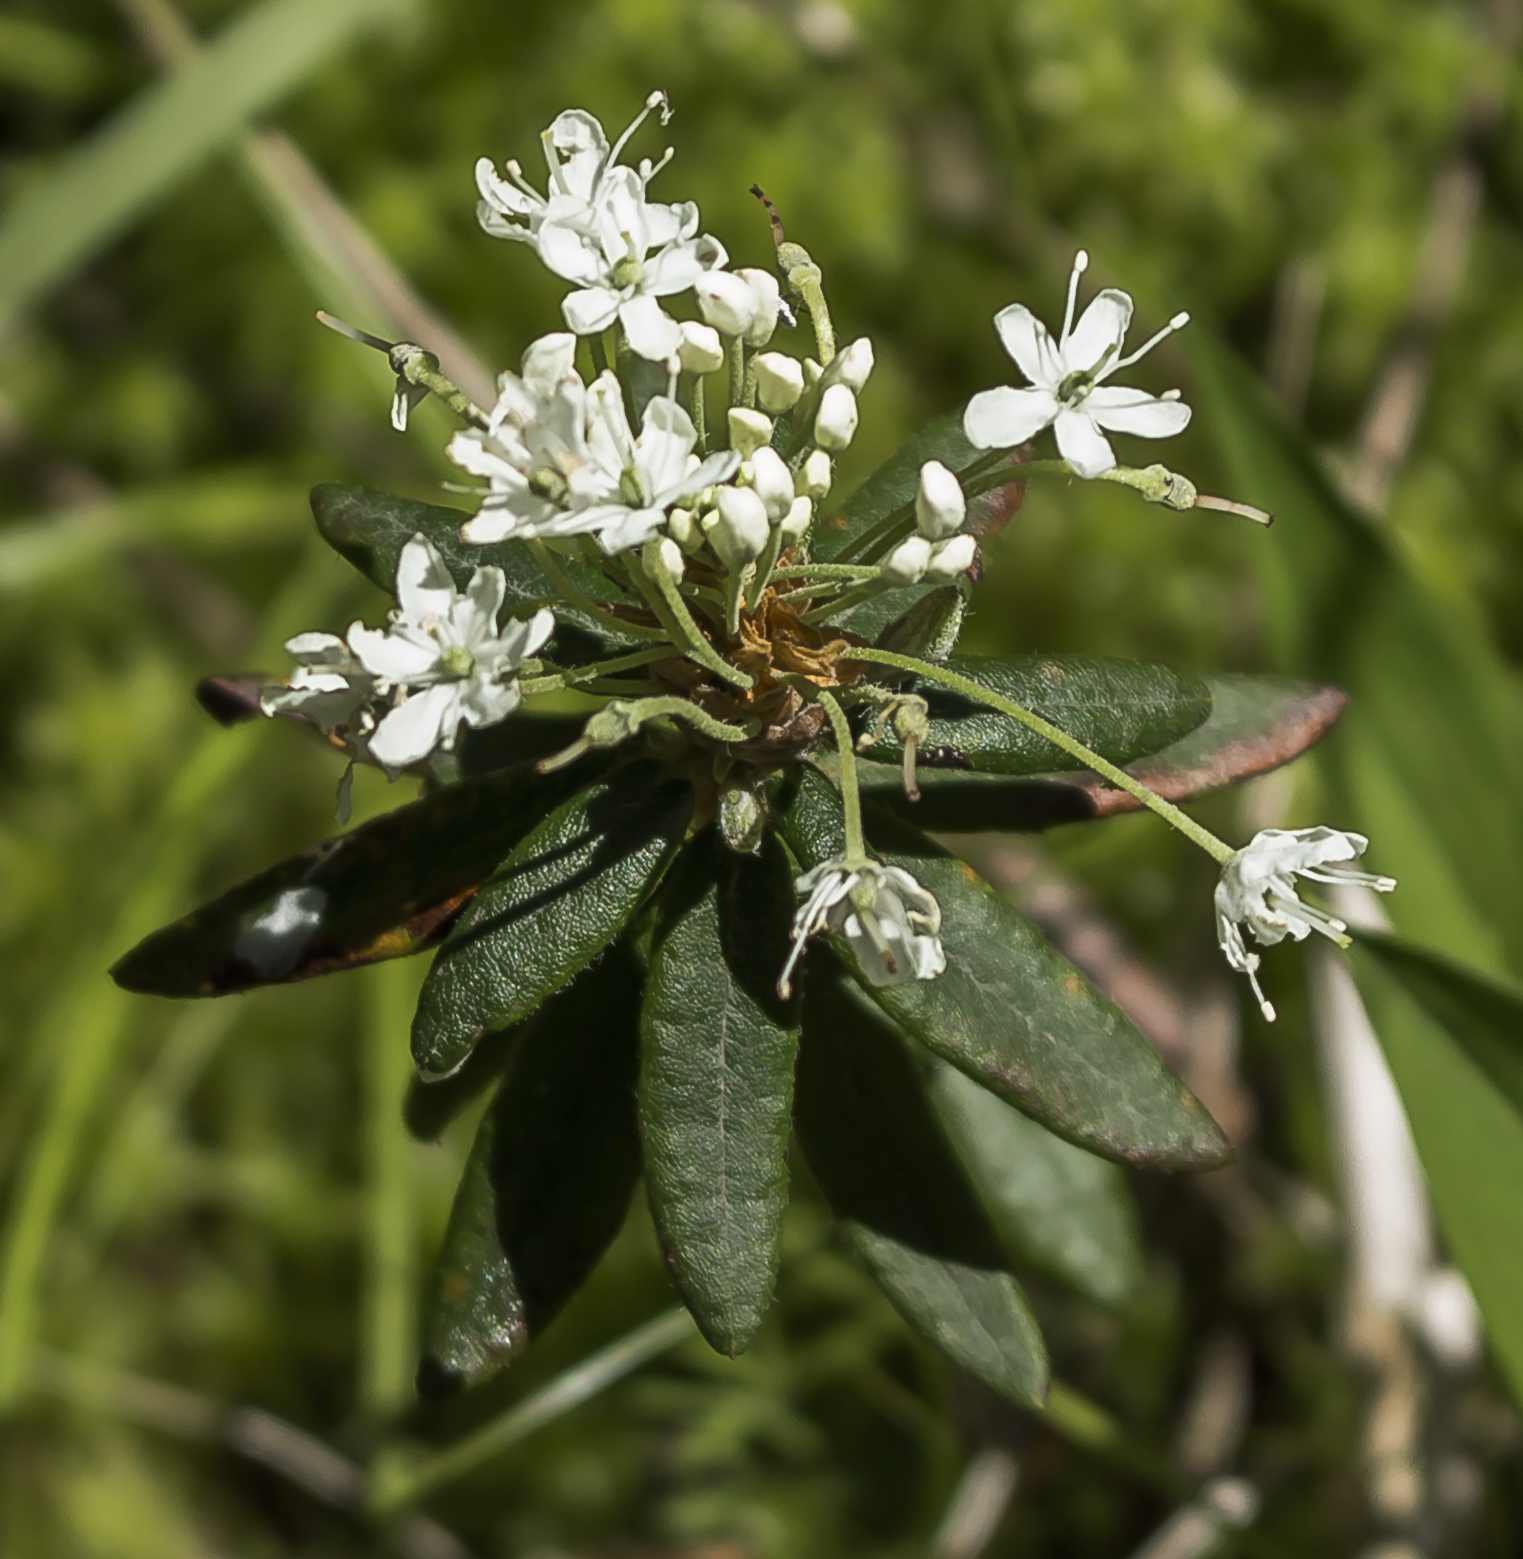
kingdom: Plantae
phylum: Tracheophyta
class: Magnoliopsida
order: Ericales
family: Ericaceae
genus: Rhododendron
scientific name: Rhododendron groenlandicum
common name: Bog labrador tea
